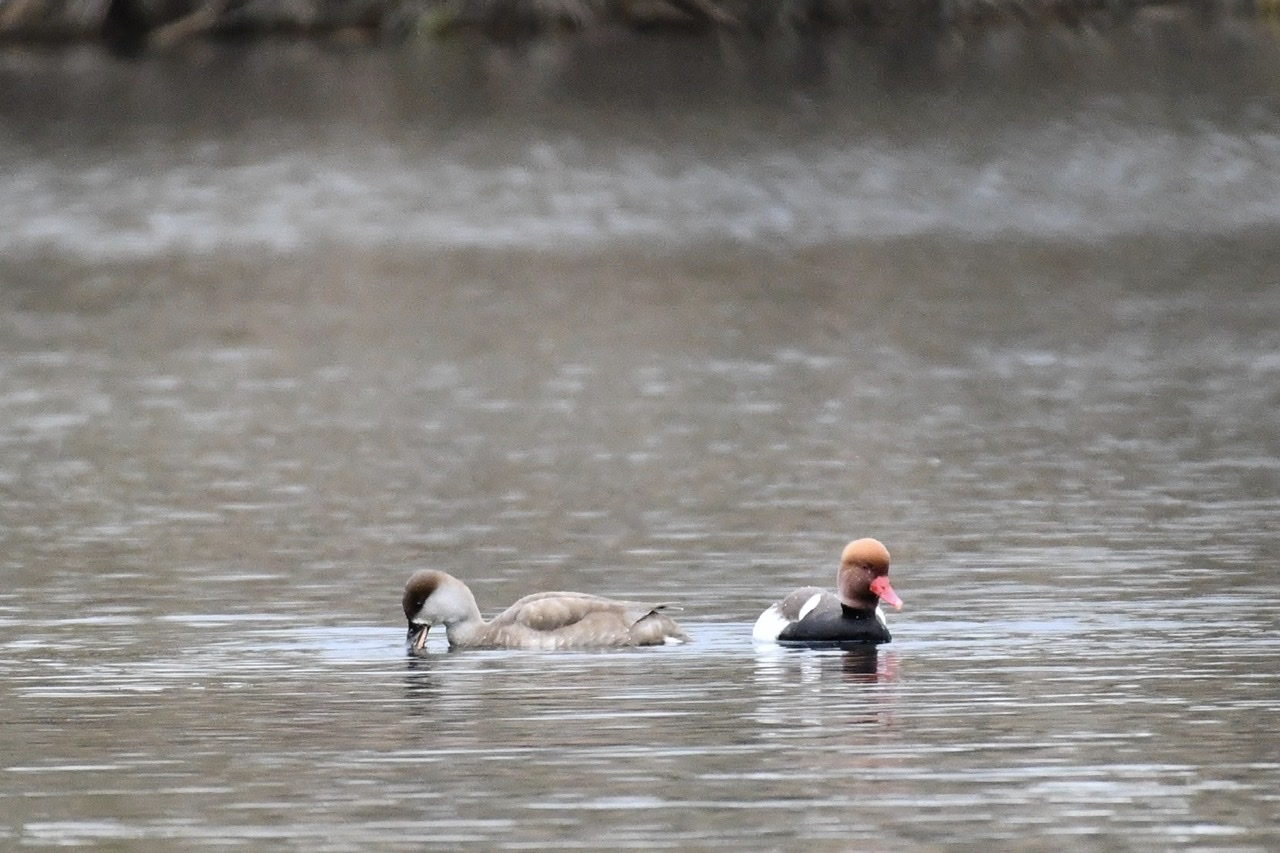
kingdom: Animalia
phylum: Chordata
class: Aves
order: Anseriformes
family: Anatidae
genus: Netta
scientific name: Netta rufina
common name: Red-crested pochard
